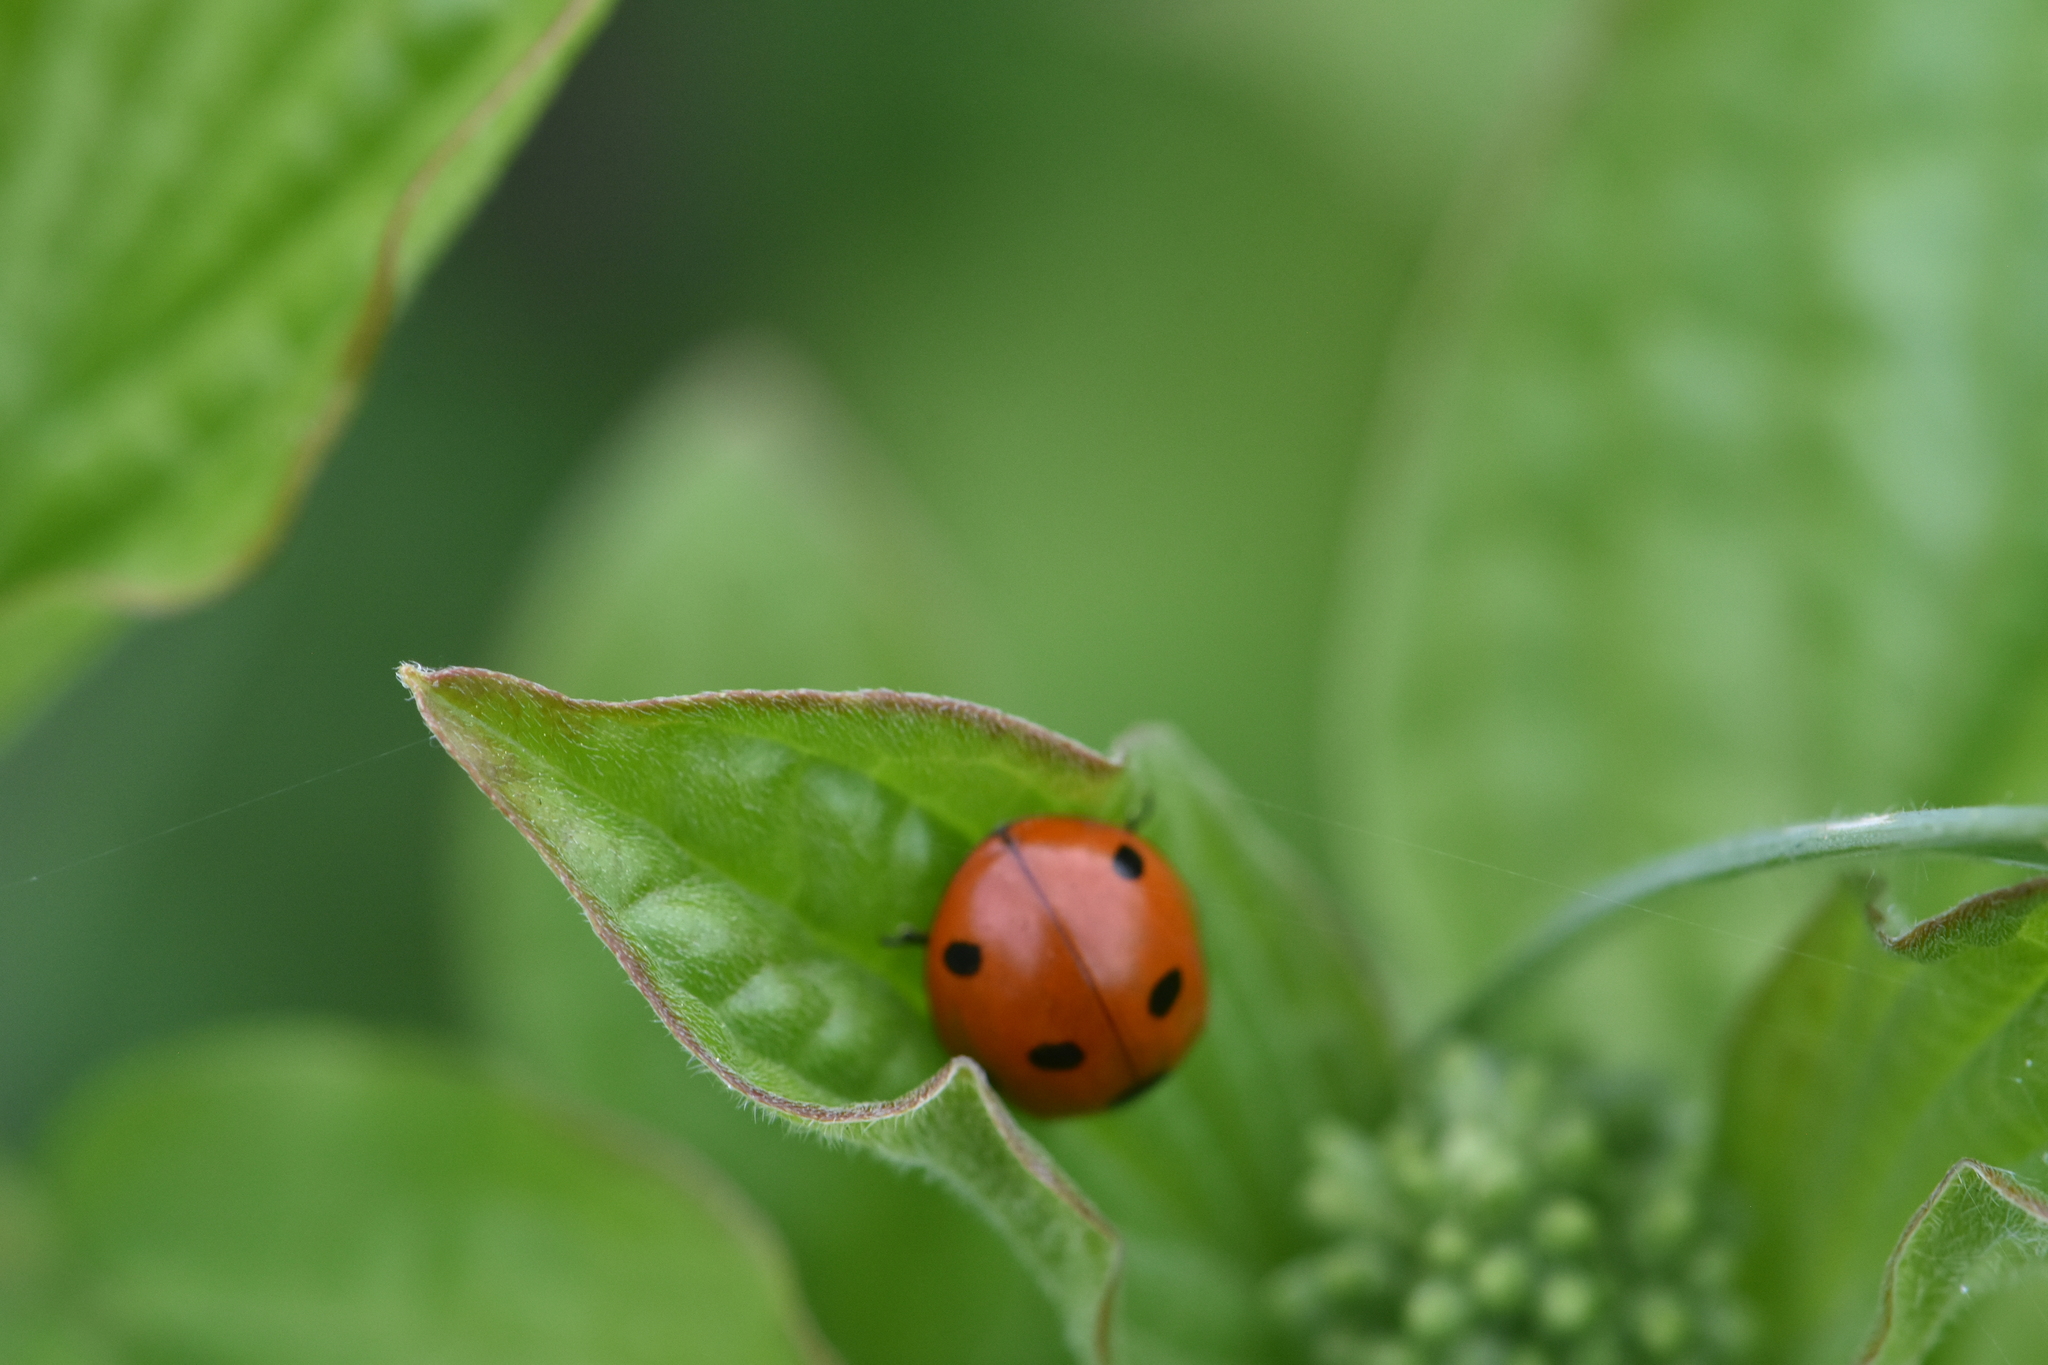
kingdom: Animalia
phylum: Arthropoda
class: Insecta
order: Coleoptera
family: Coccinellidae
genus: Coccinella
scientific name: Coccinella septempunctata
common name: Sevenspotted lady beetle
